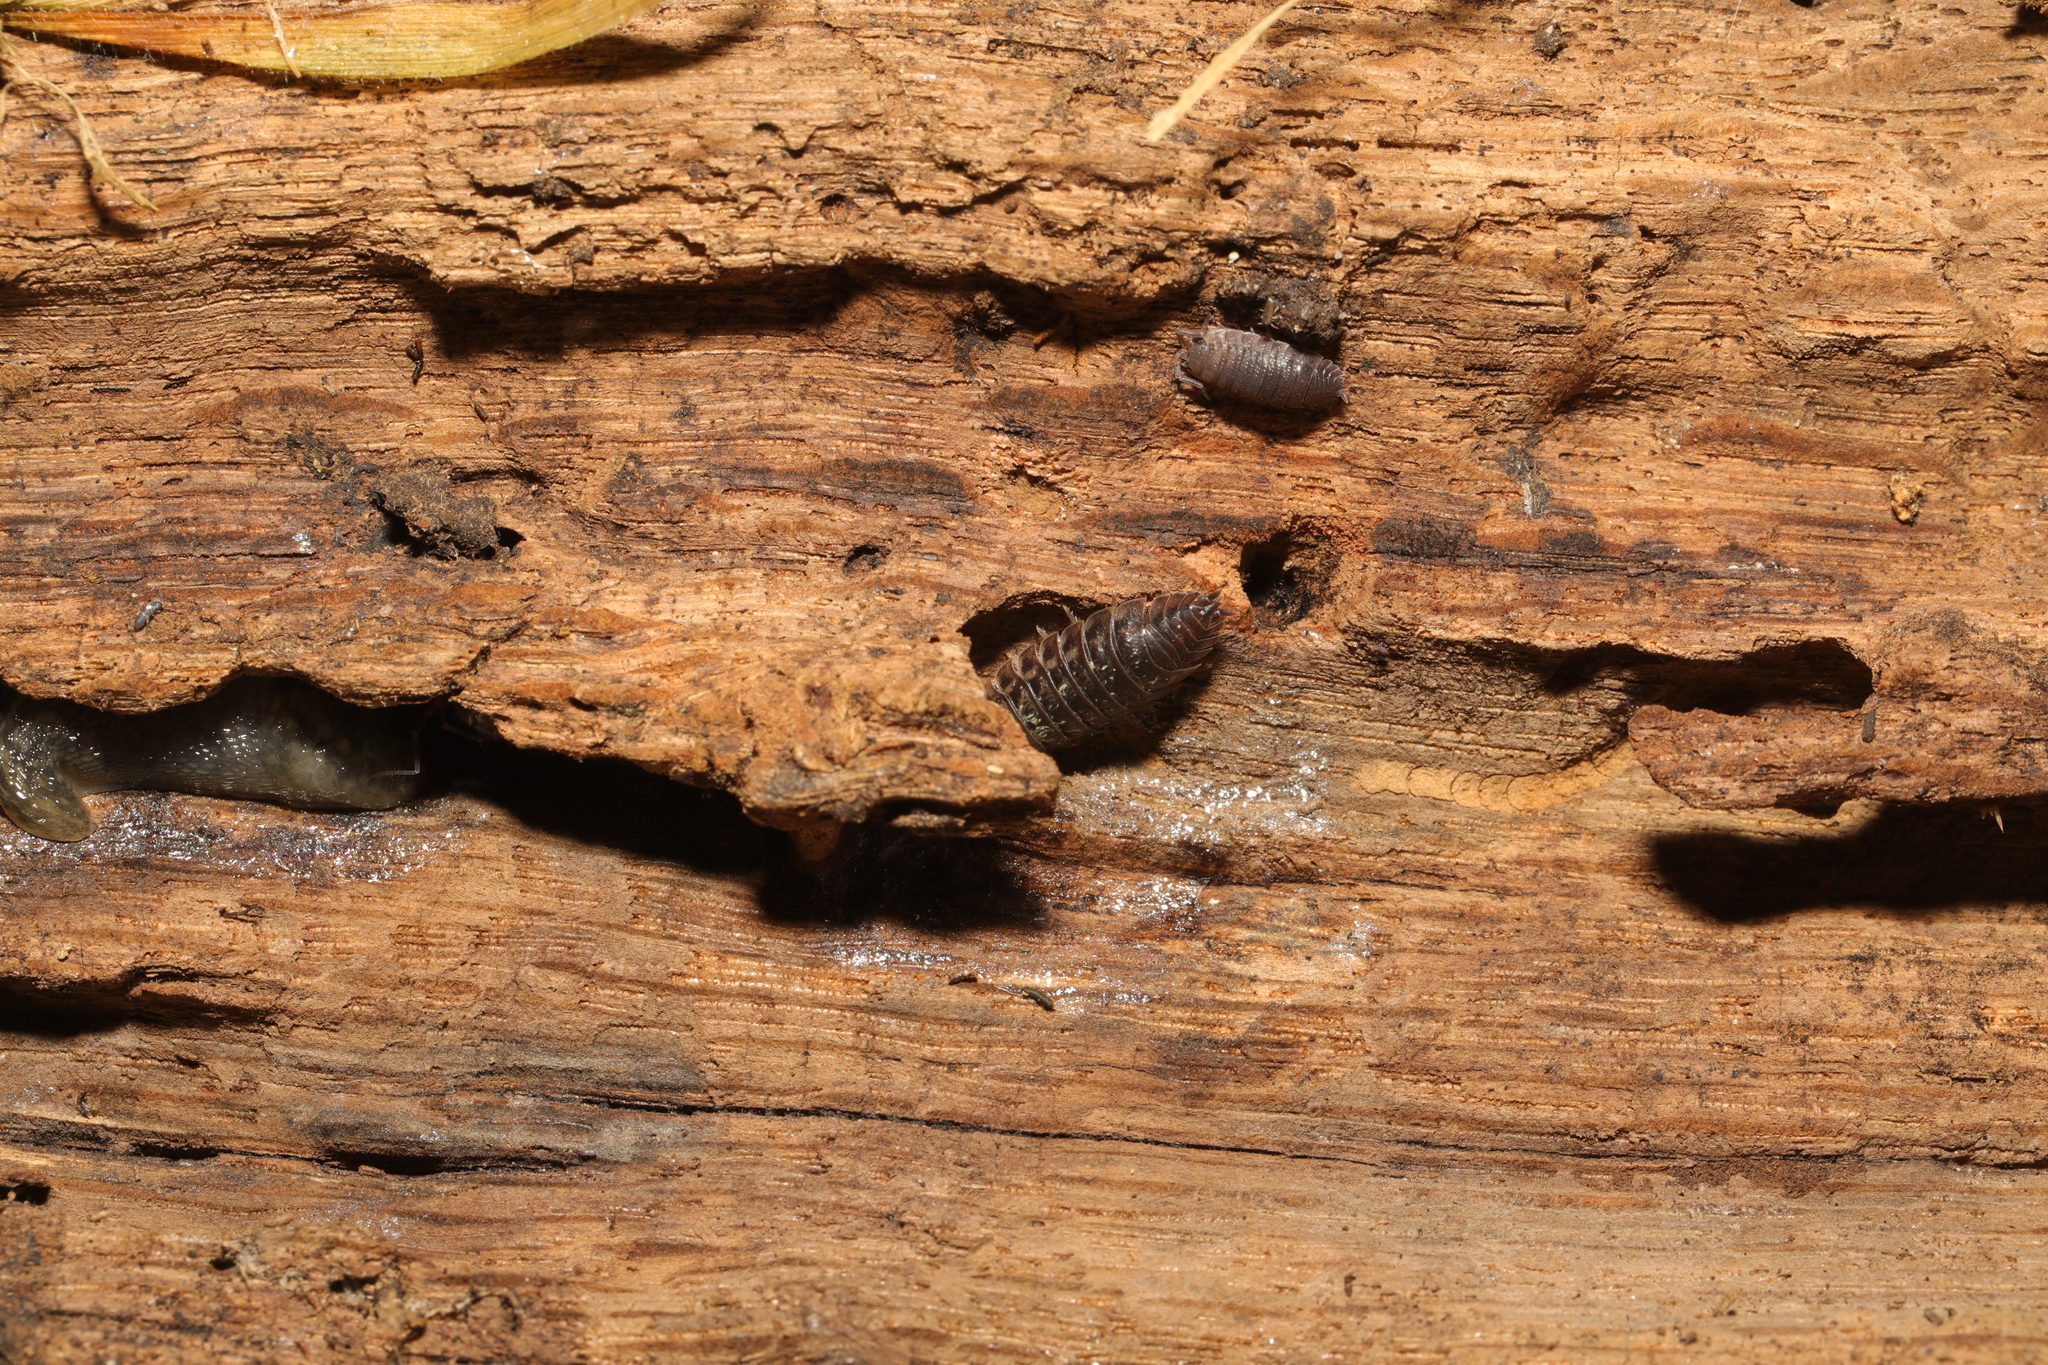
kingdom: Animalia
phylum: Arthropoda
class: Malacostraca
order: Isopoda
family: Porcellionidae
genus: Porcellio
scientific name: Porcellio scaber
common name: Common rough woodlouse
